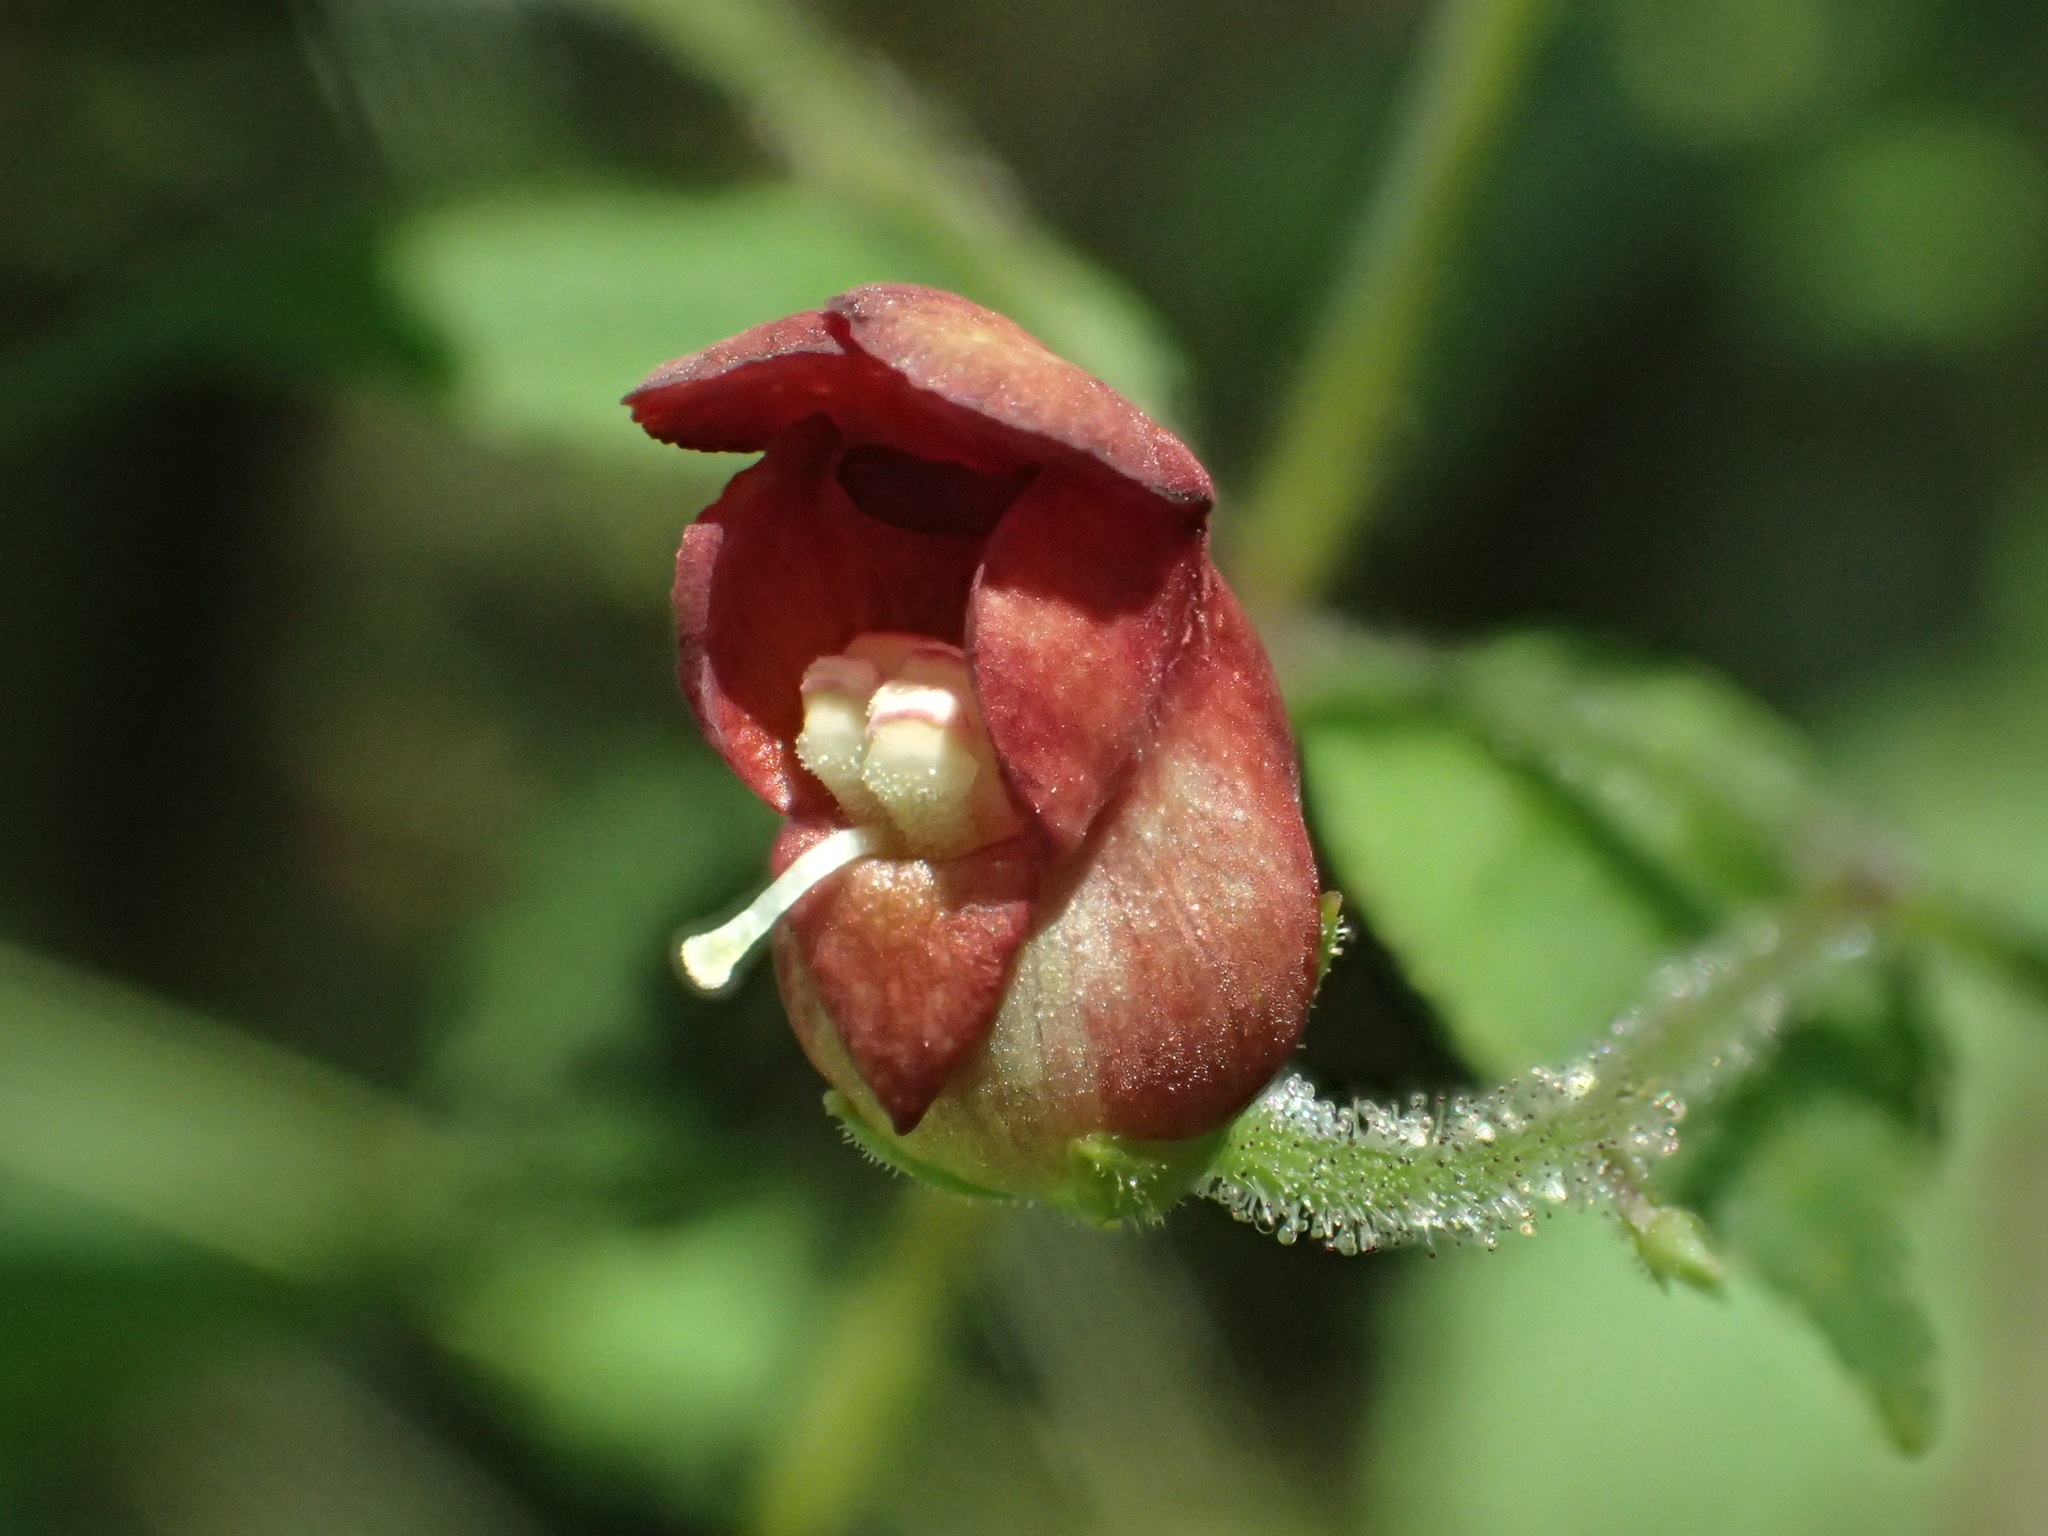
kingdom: Plantae
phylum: Tracheophyta
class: Magnoliopsida
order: Lamiales
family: Scrophulariaceae
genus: Scrophularia
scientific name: Scrophularia yoshimurae
